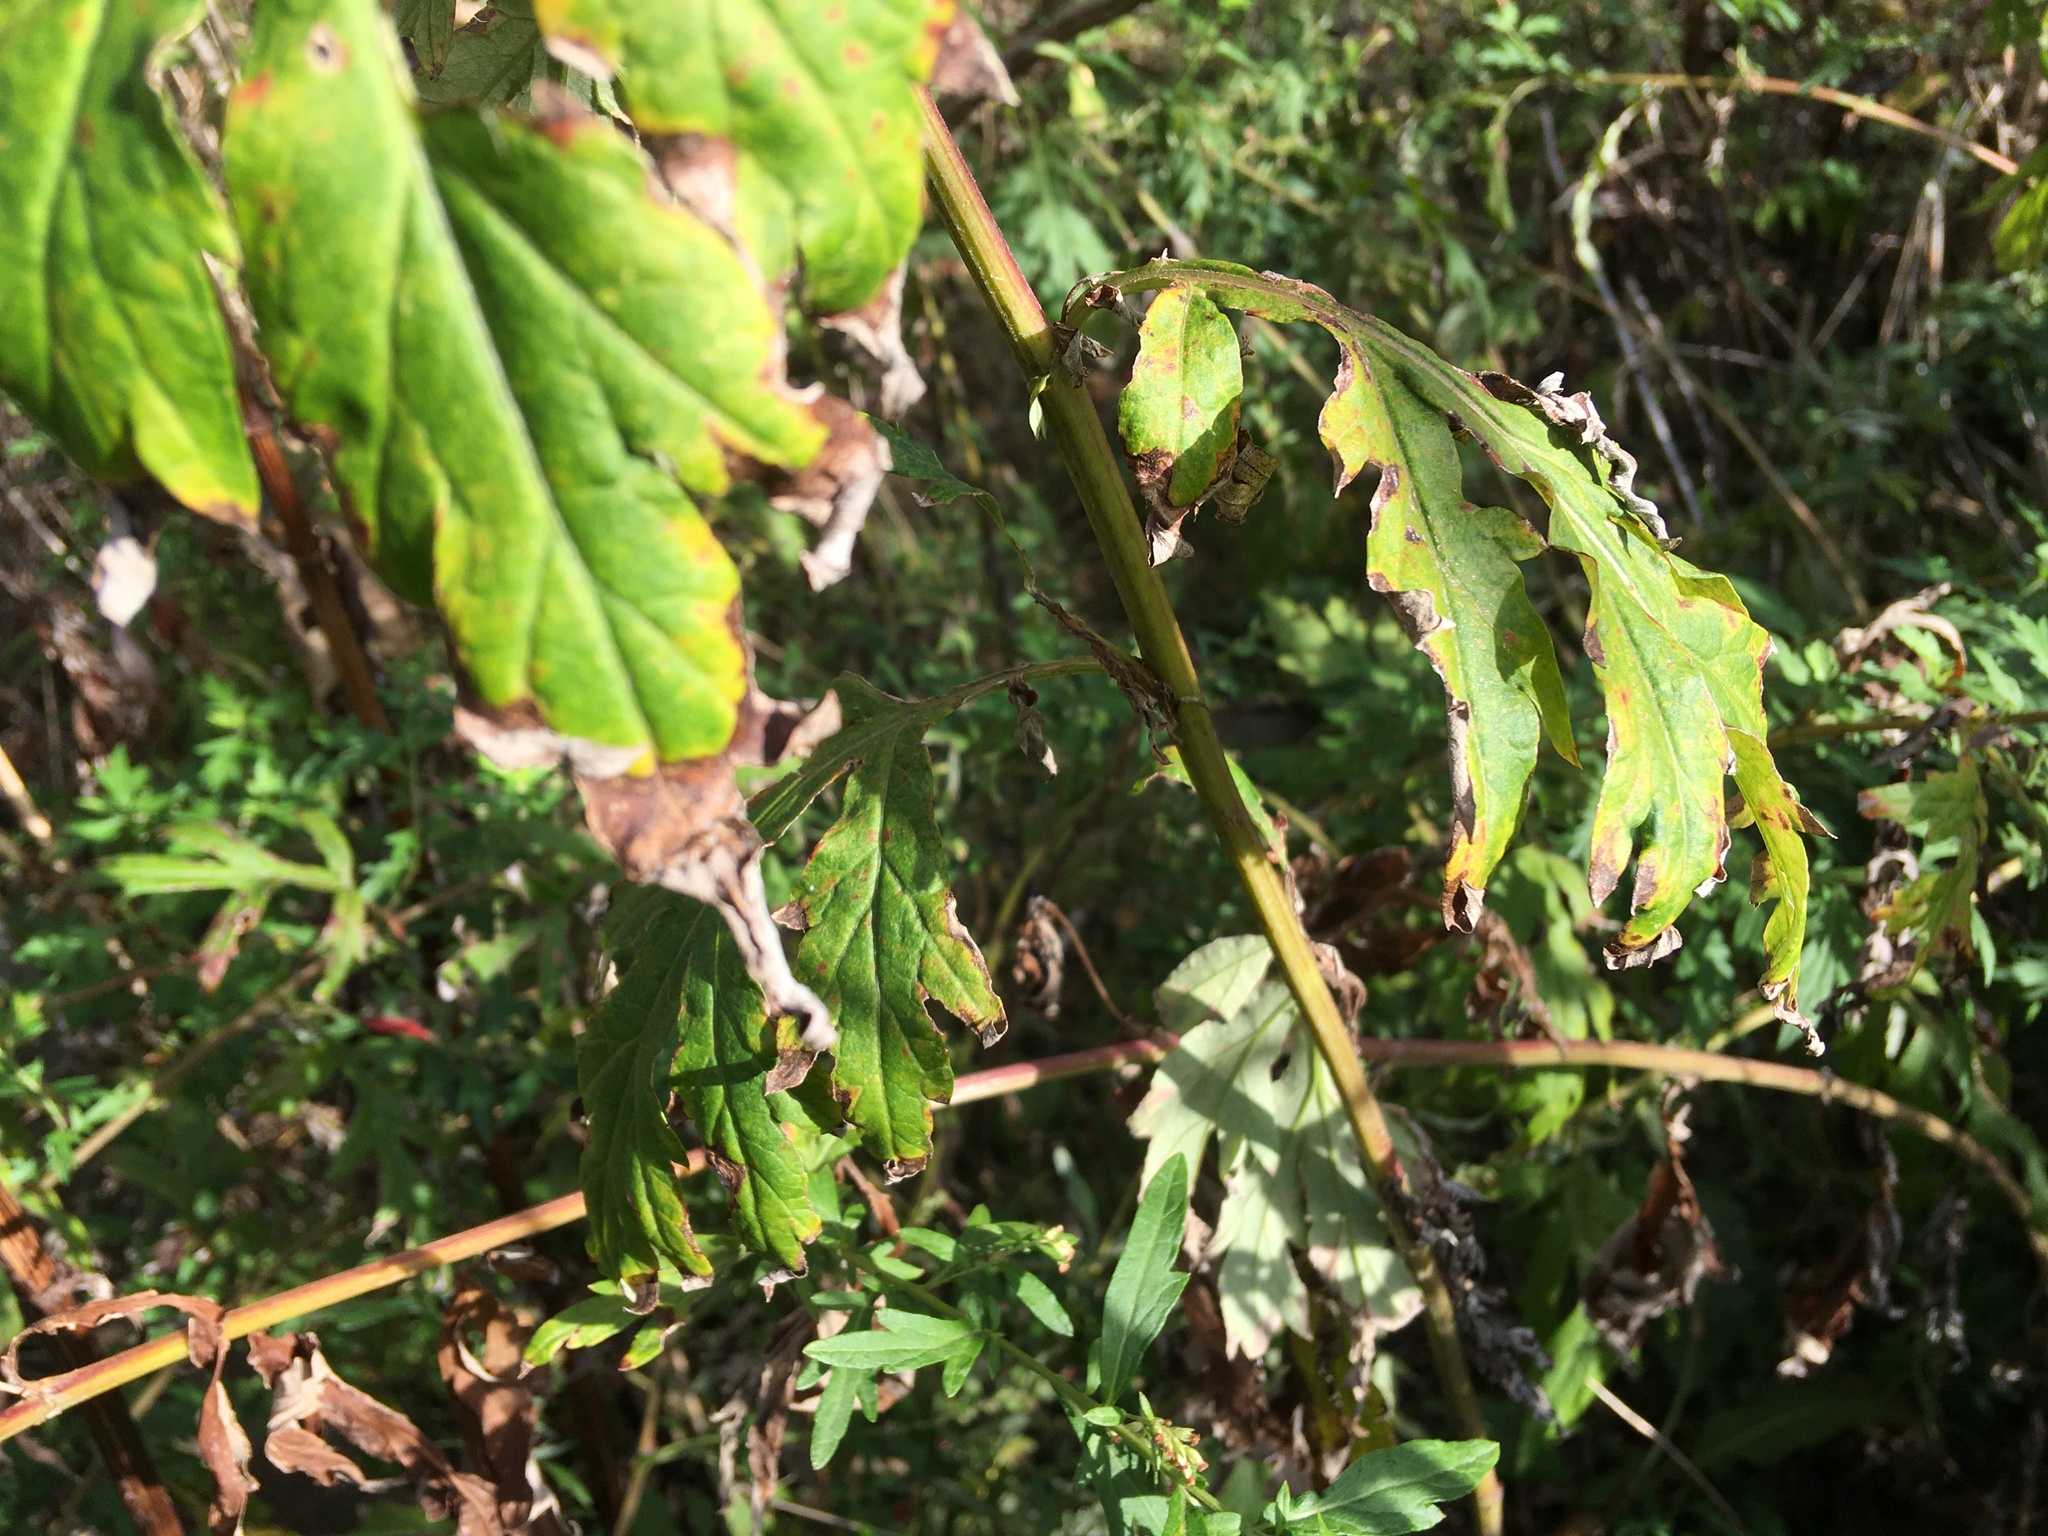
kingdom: Plantae
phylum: Tracheophyta
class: Magnoliopsida
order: Asterales
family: Asteraceae
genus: Artemisia
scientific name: Artemisia vulgaris
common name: Mugwort
